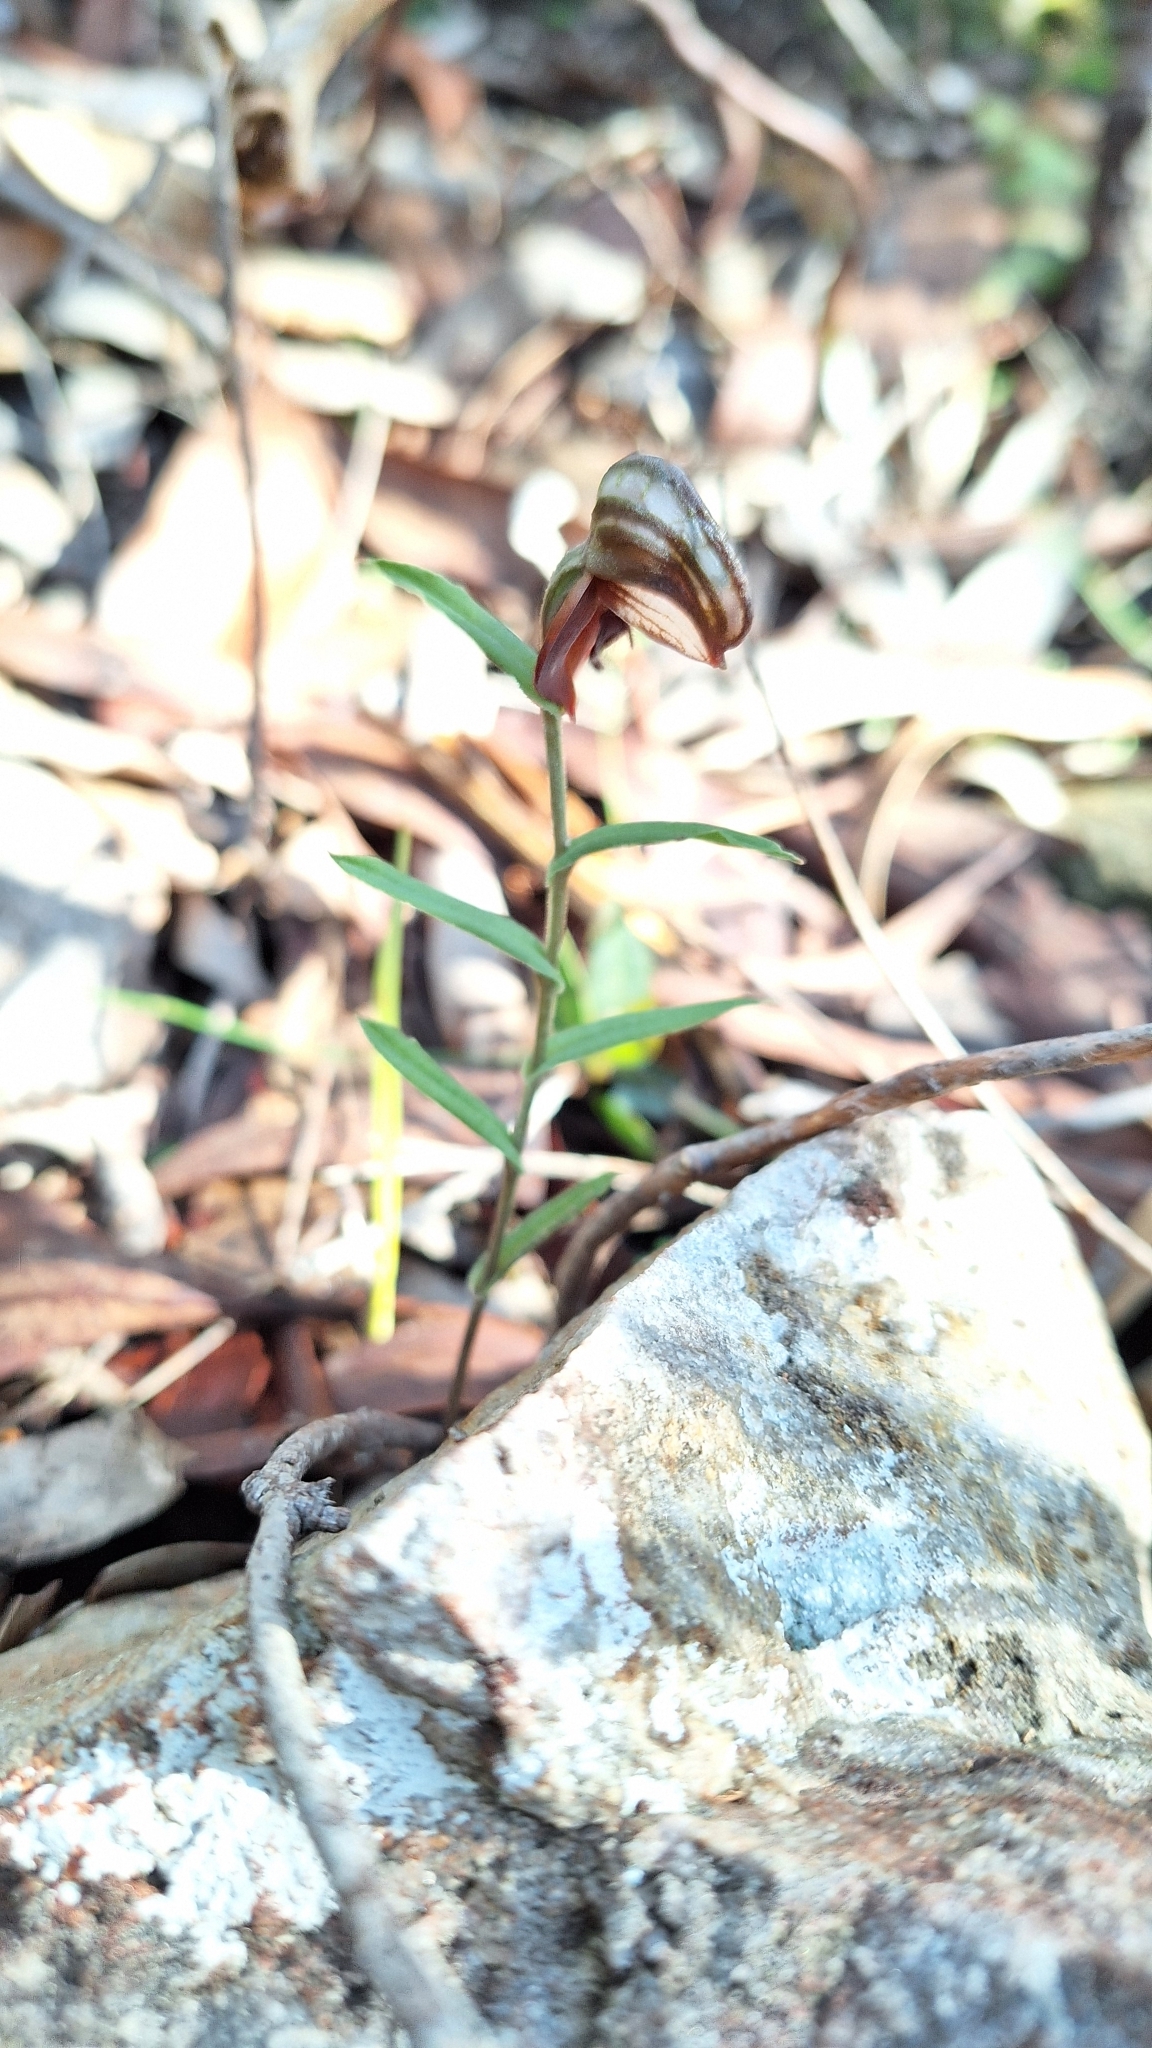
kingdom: Plantae
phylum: Tracheophyta
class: Liliopsida
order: Asparagales
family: Orchidaceae
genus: Pterostylis
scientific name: Pterostylis sanguinea
